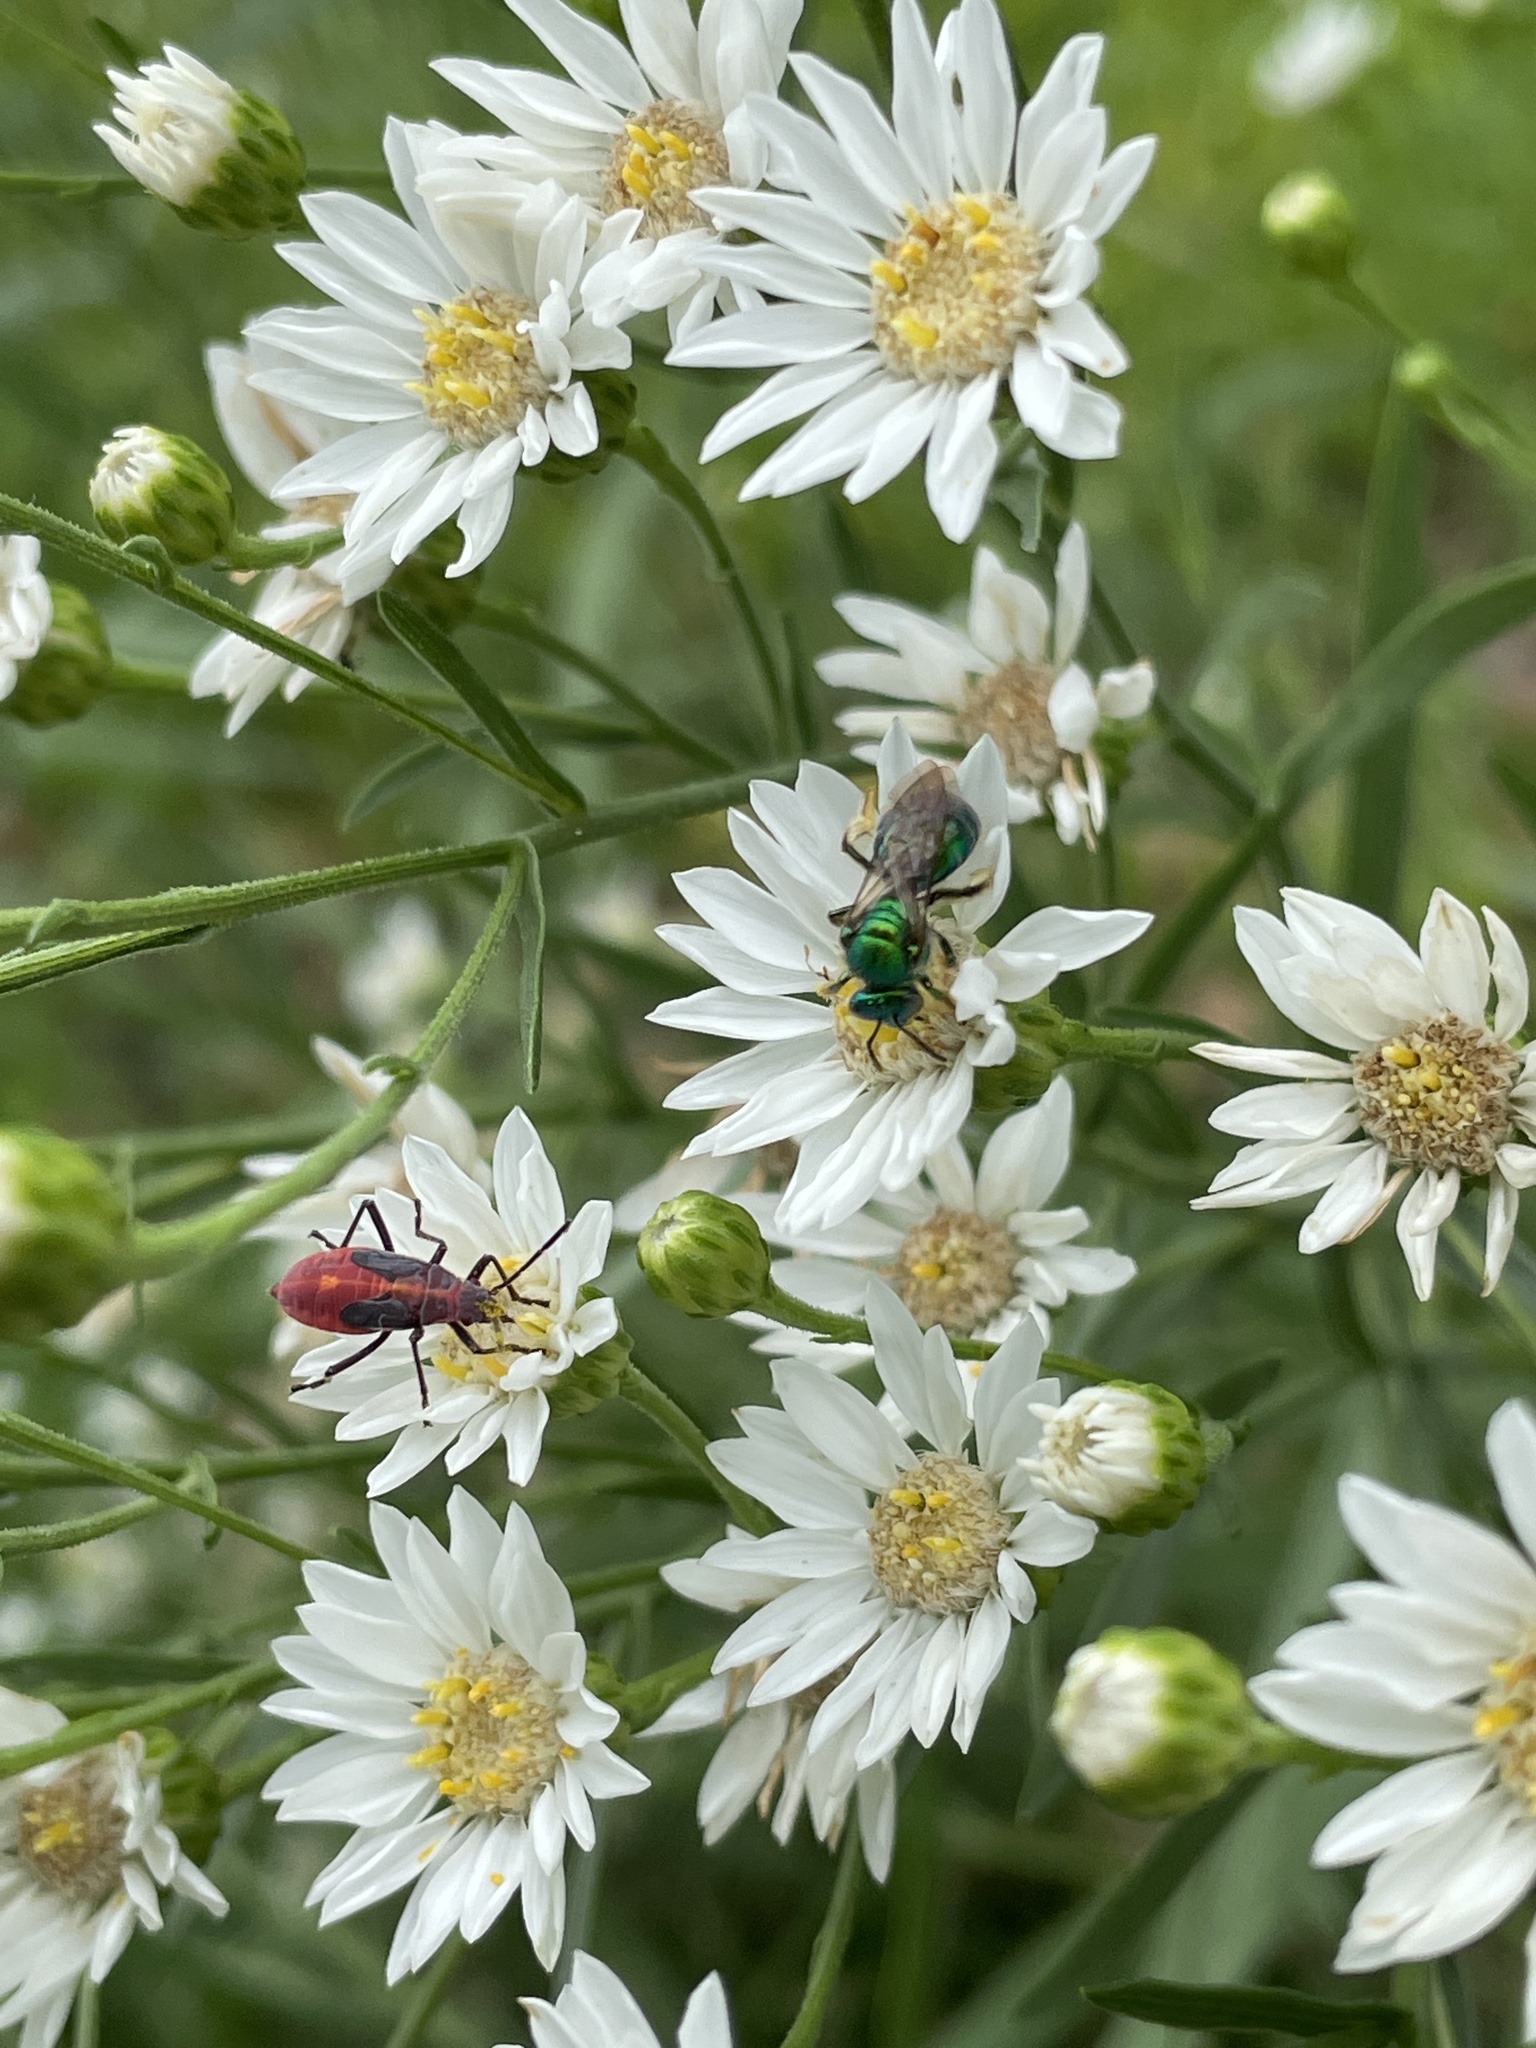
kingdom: Animalia
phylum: Arthropoda
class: Insecta
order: Hemiptera
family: Rhopalidae
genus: Boisea
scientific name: Boisea trivittata
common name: Boxelder bug
